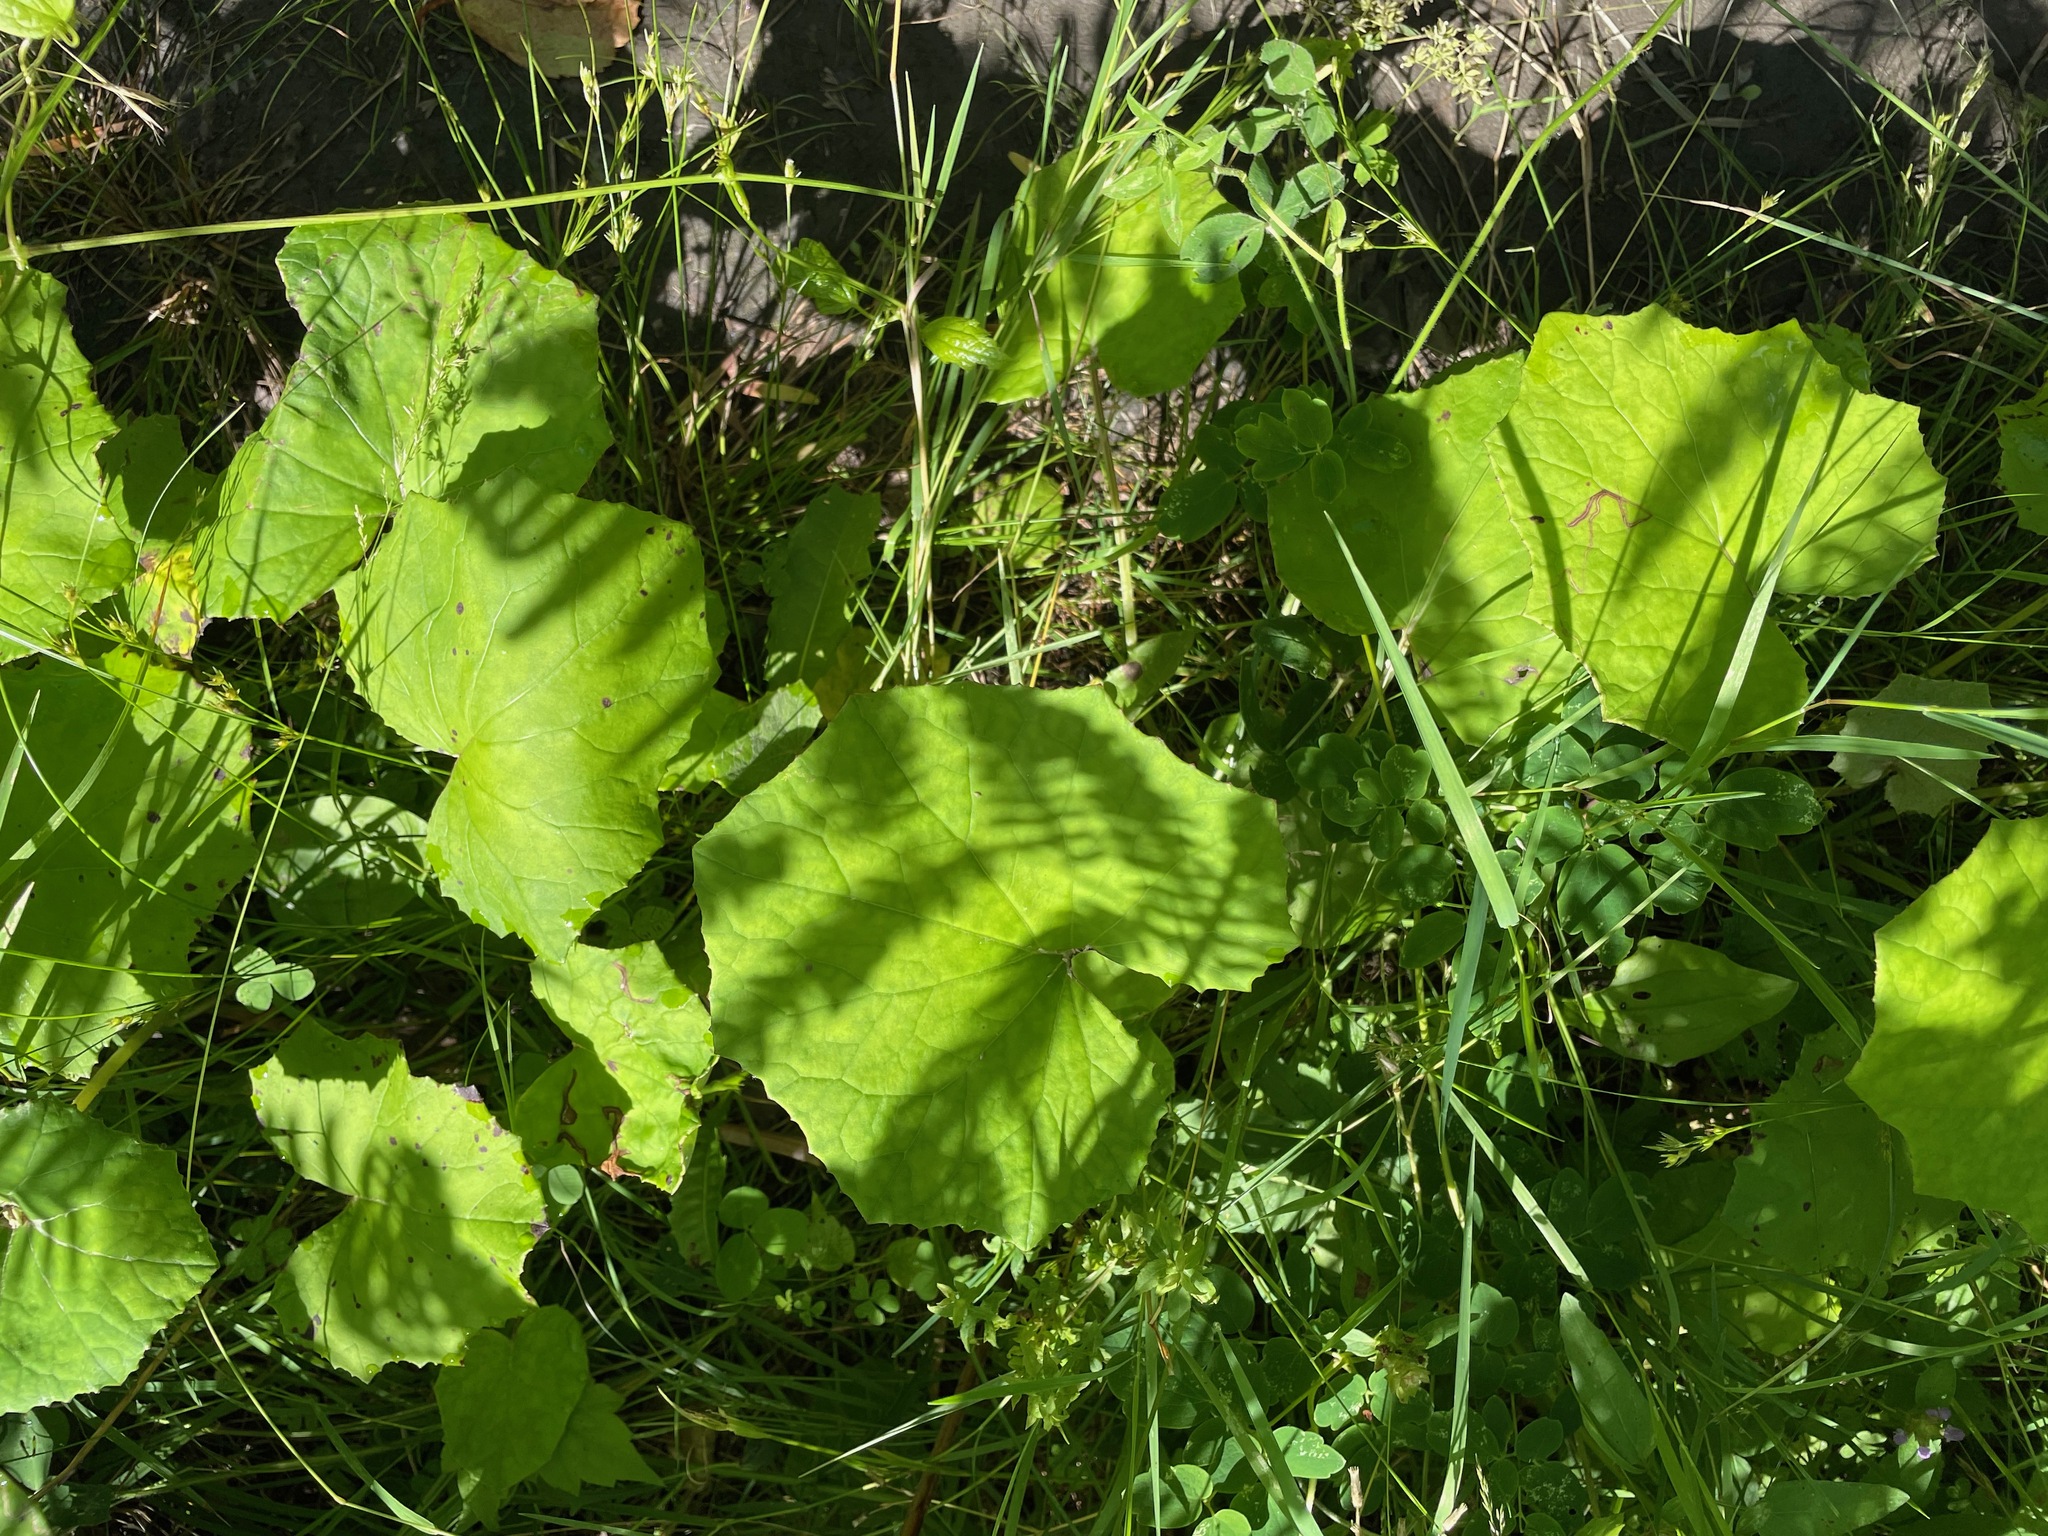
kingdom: Plantae
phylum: Tracheophyta
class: Magnoliopsida
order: Asterales
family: Asteraceae
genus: Tussilago
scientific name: Tussilago farfara
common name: Coltsfoot
